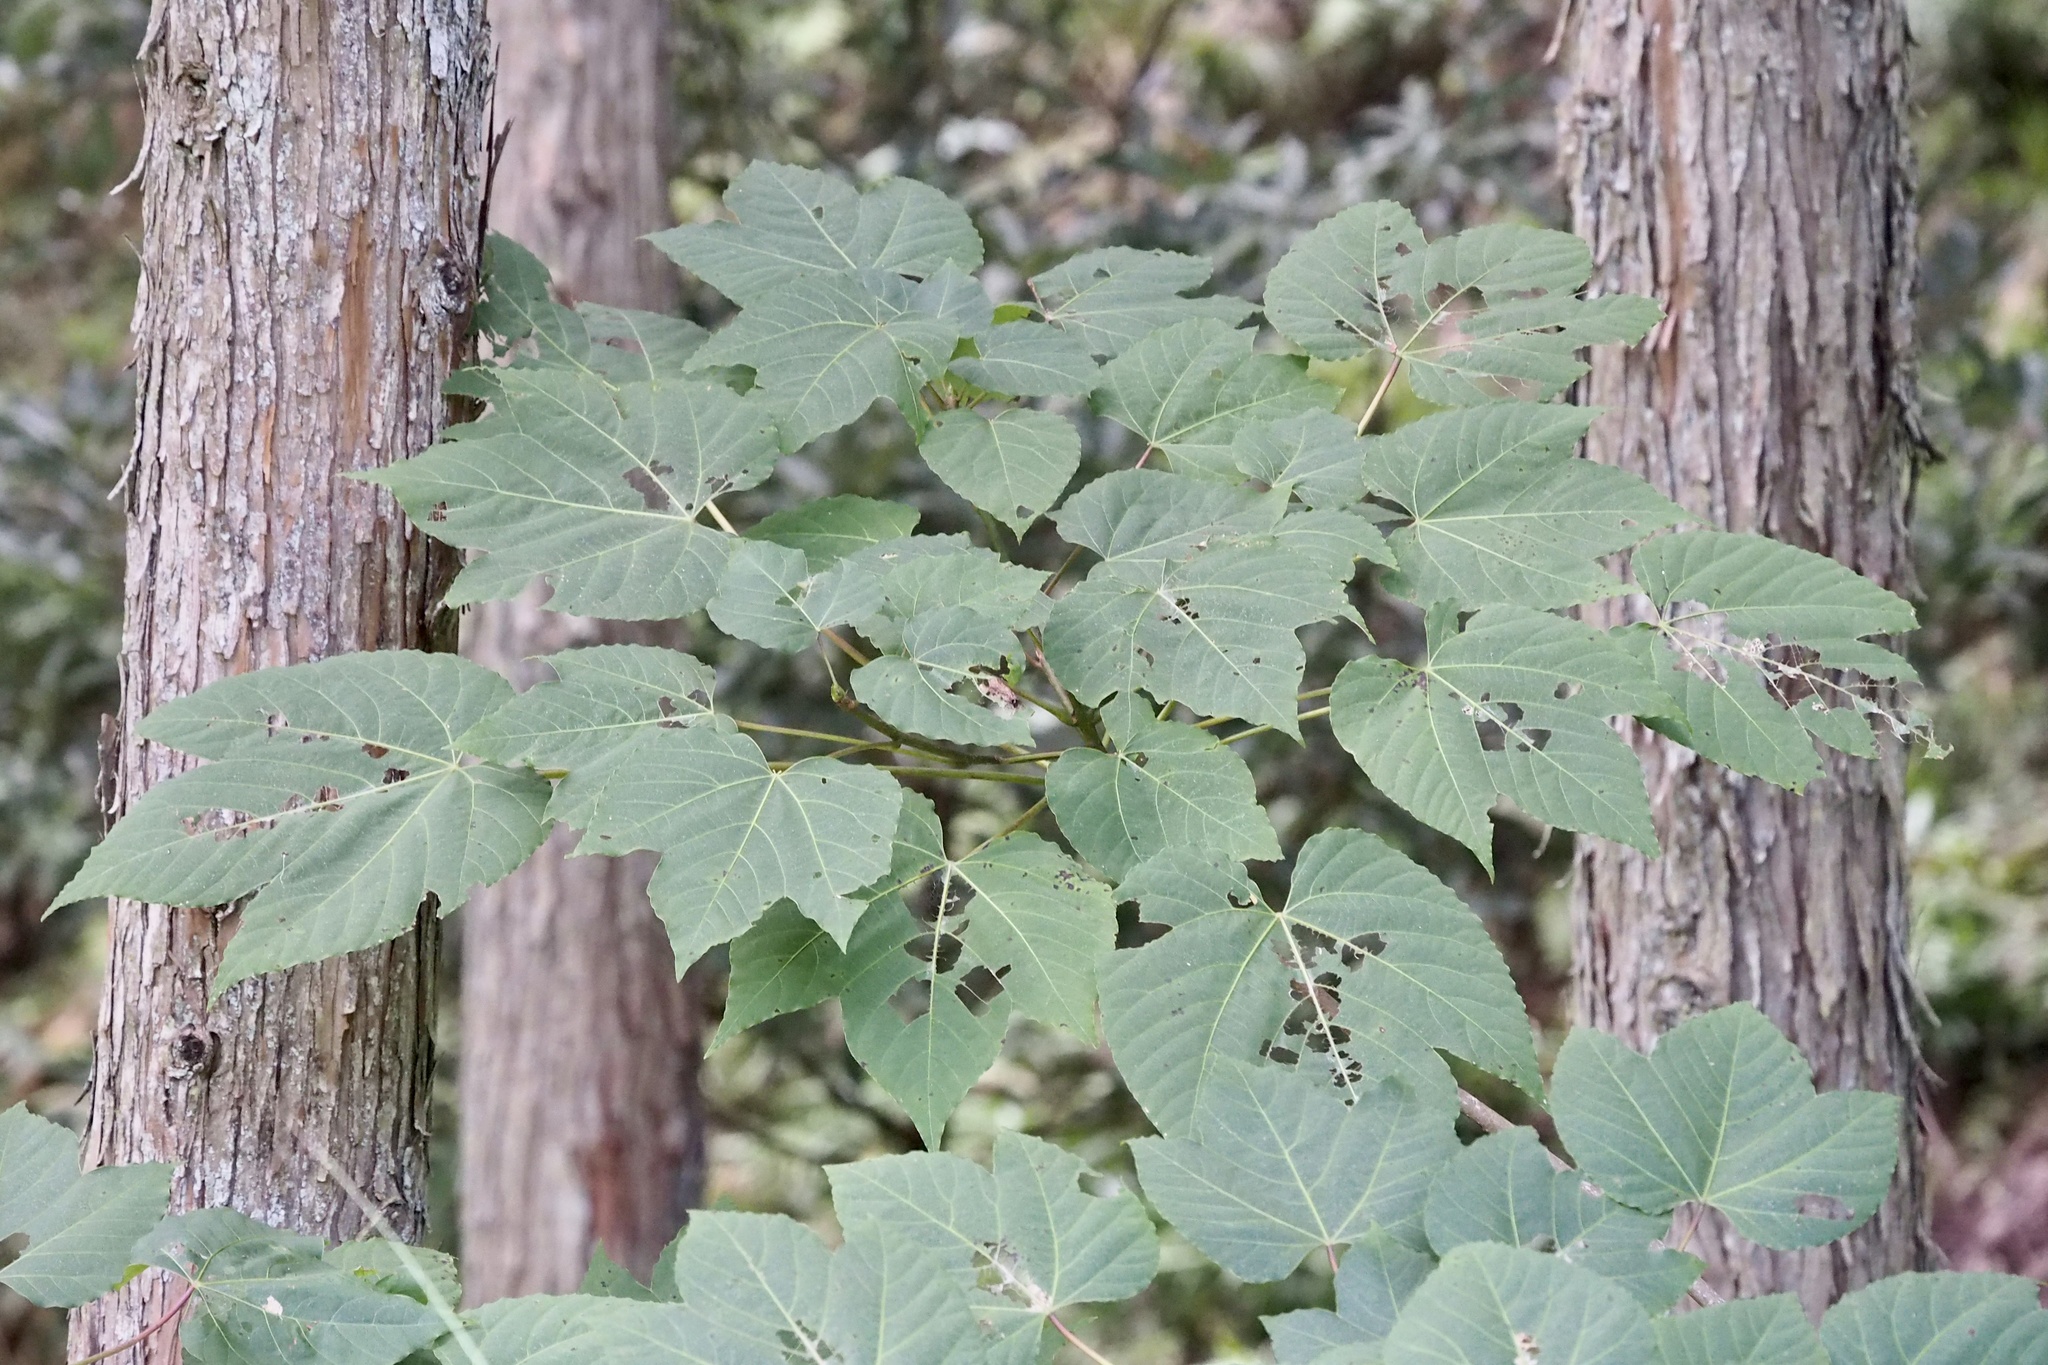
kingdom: Plantae
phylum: Tracheophyta
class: Magnoliopsida
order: Malvales
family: Malvaceae
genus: Firmiana
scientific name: Firmiana simplex
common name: Chinese parasoltree
